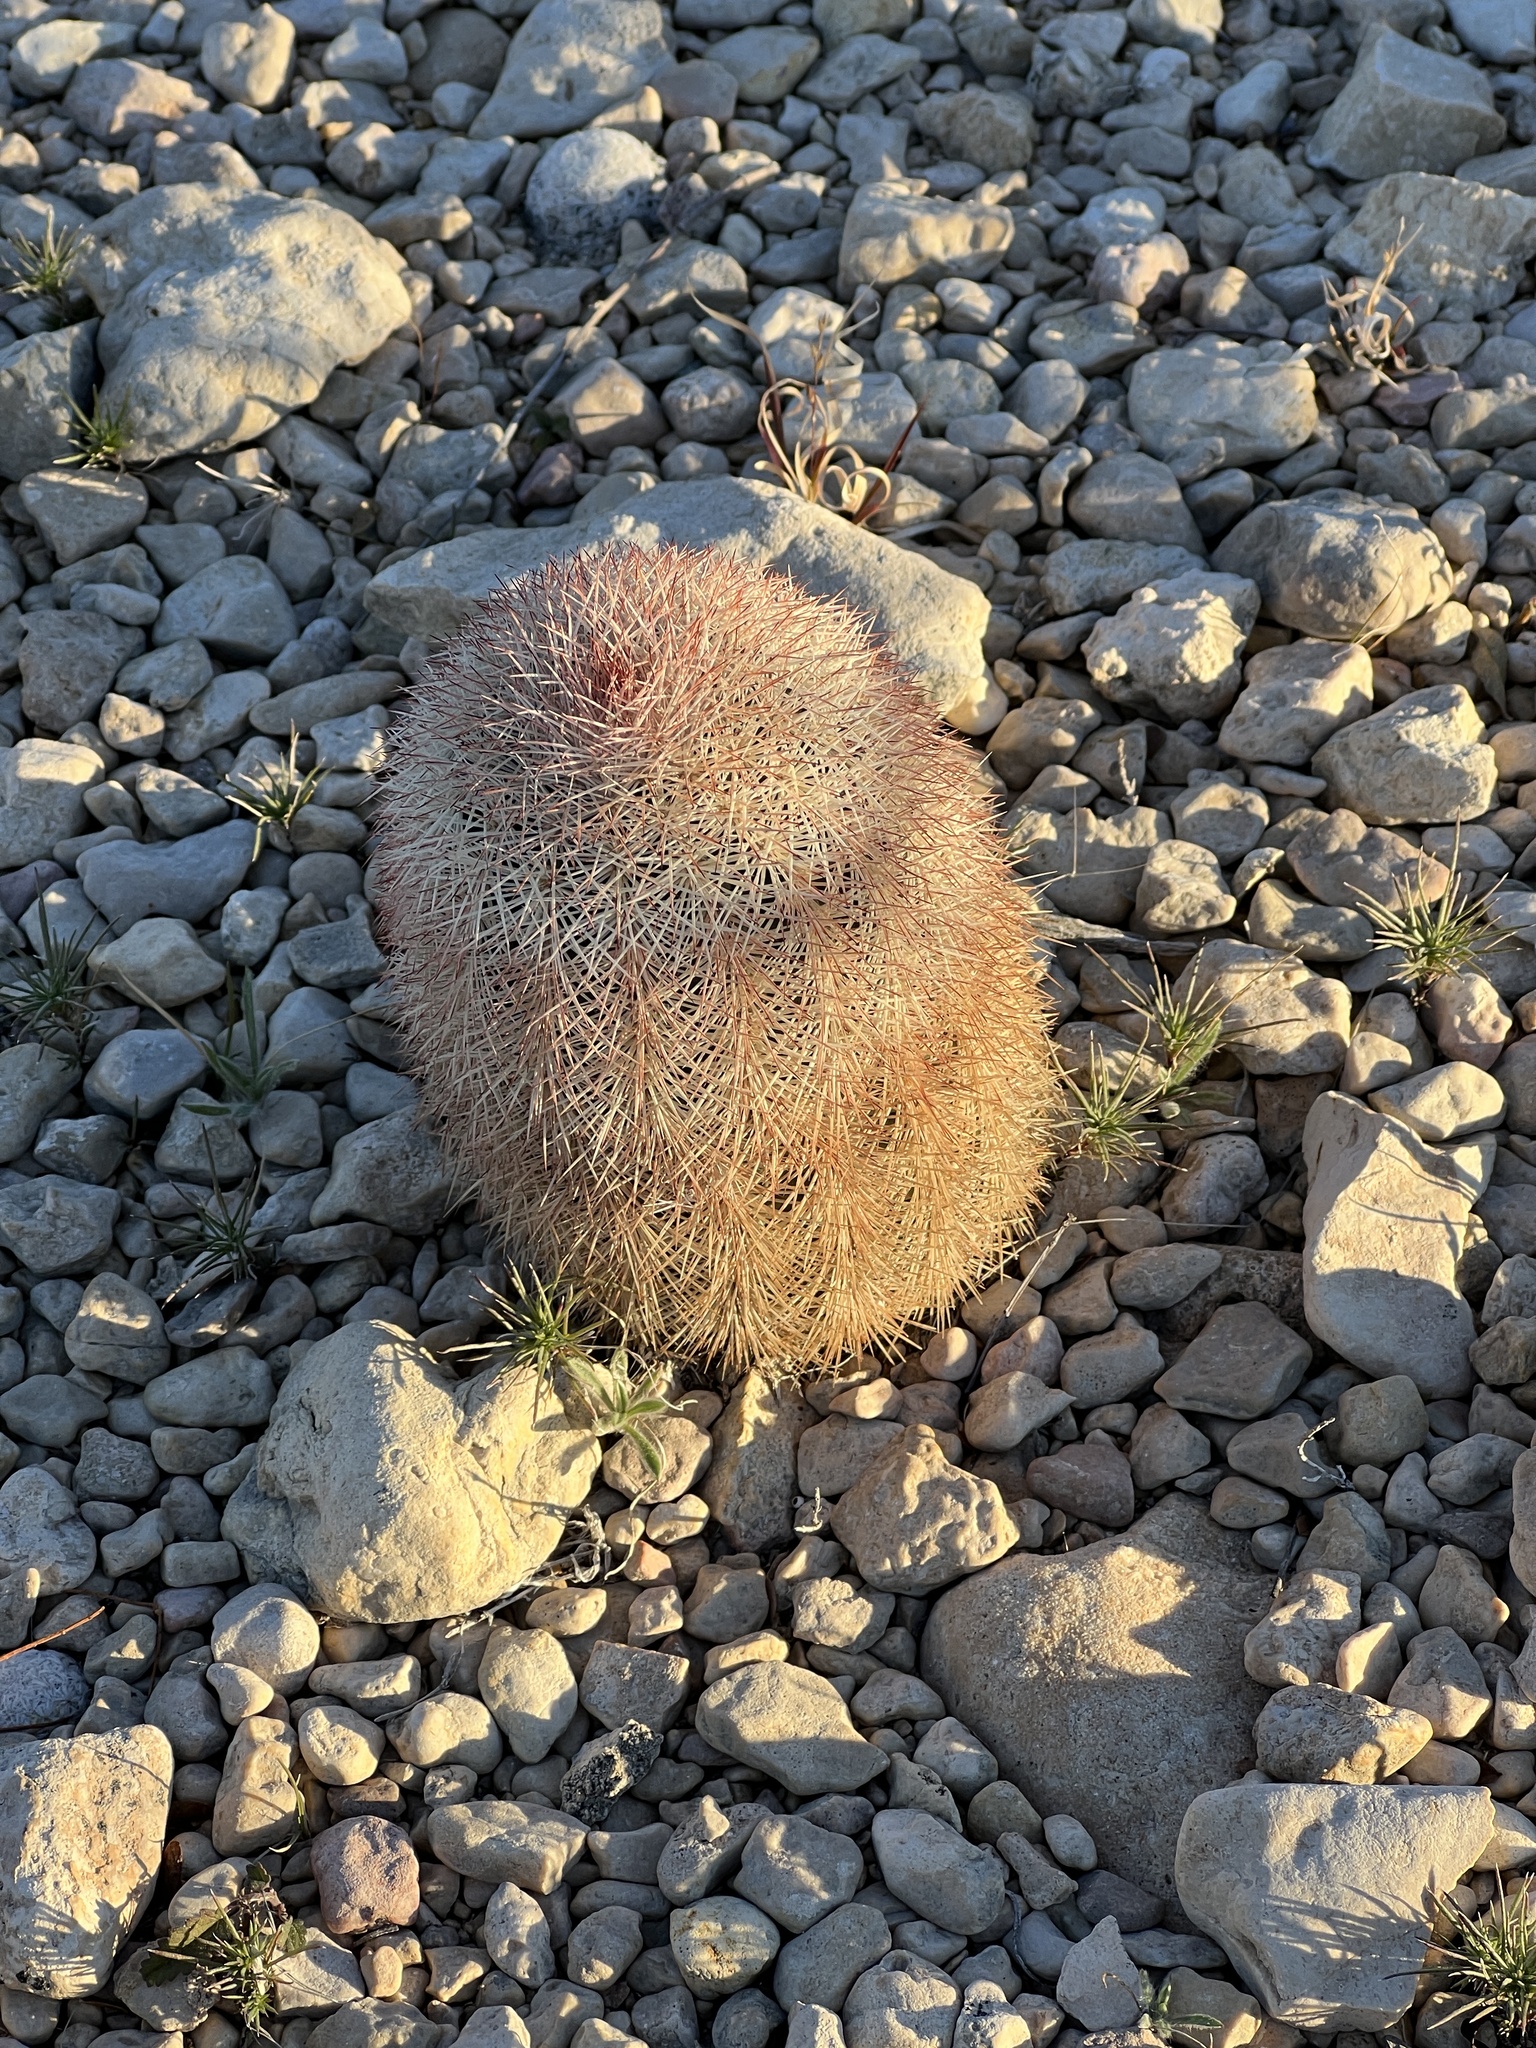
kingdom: Plantae
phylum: Tracheophyta
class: Magnoliopsida
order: Caryophyllales
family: Cactaceae
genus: Echinocereus
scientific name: Echinocereus dasyacanthus
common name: Spiny hedgehog cactus
